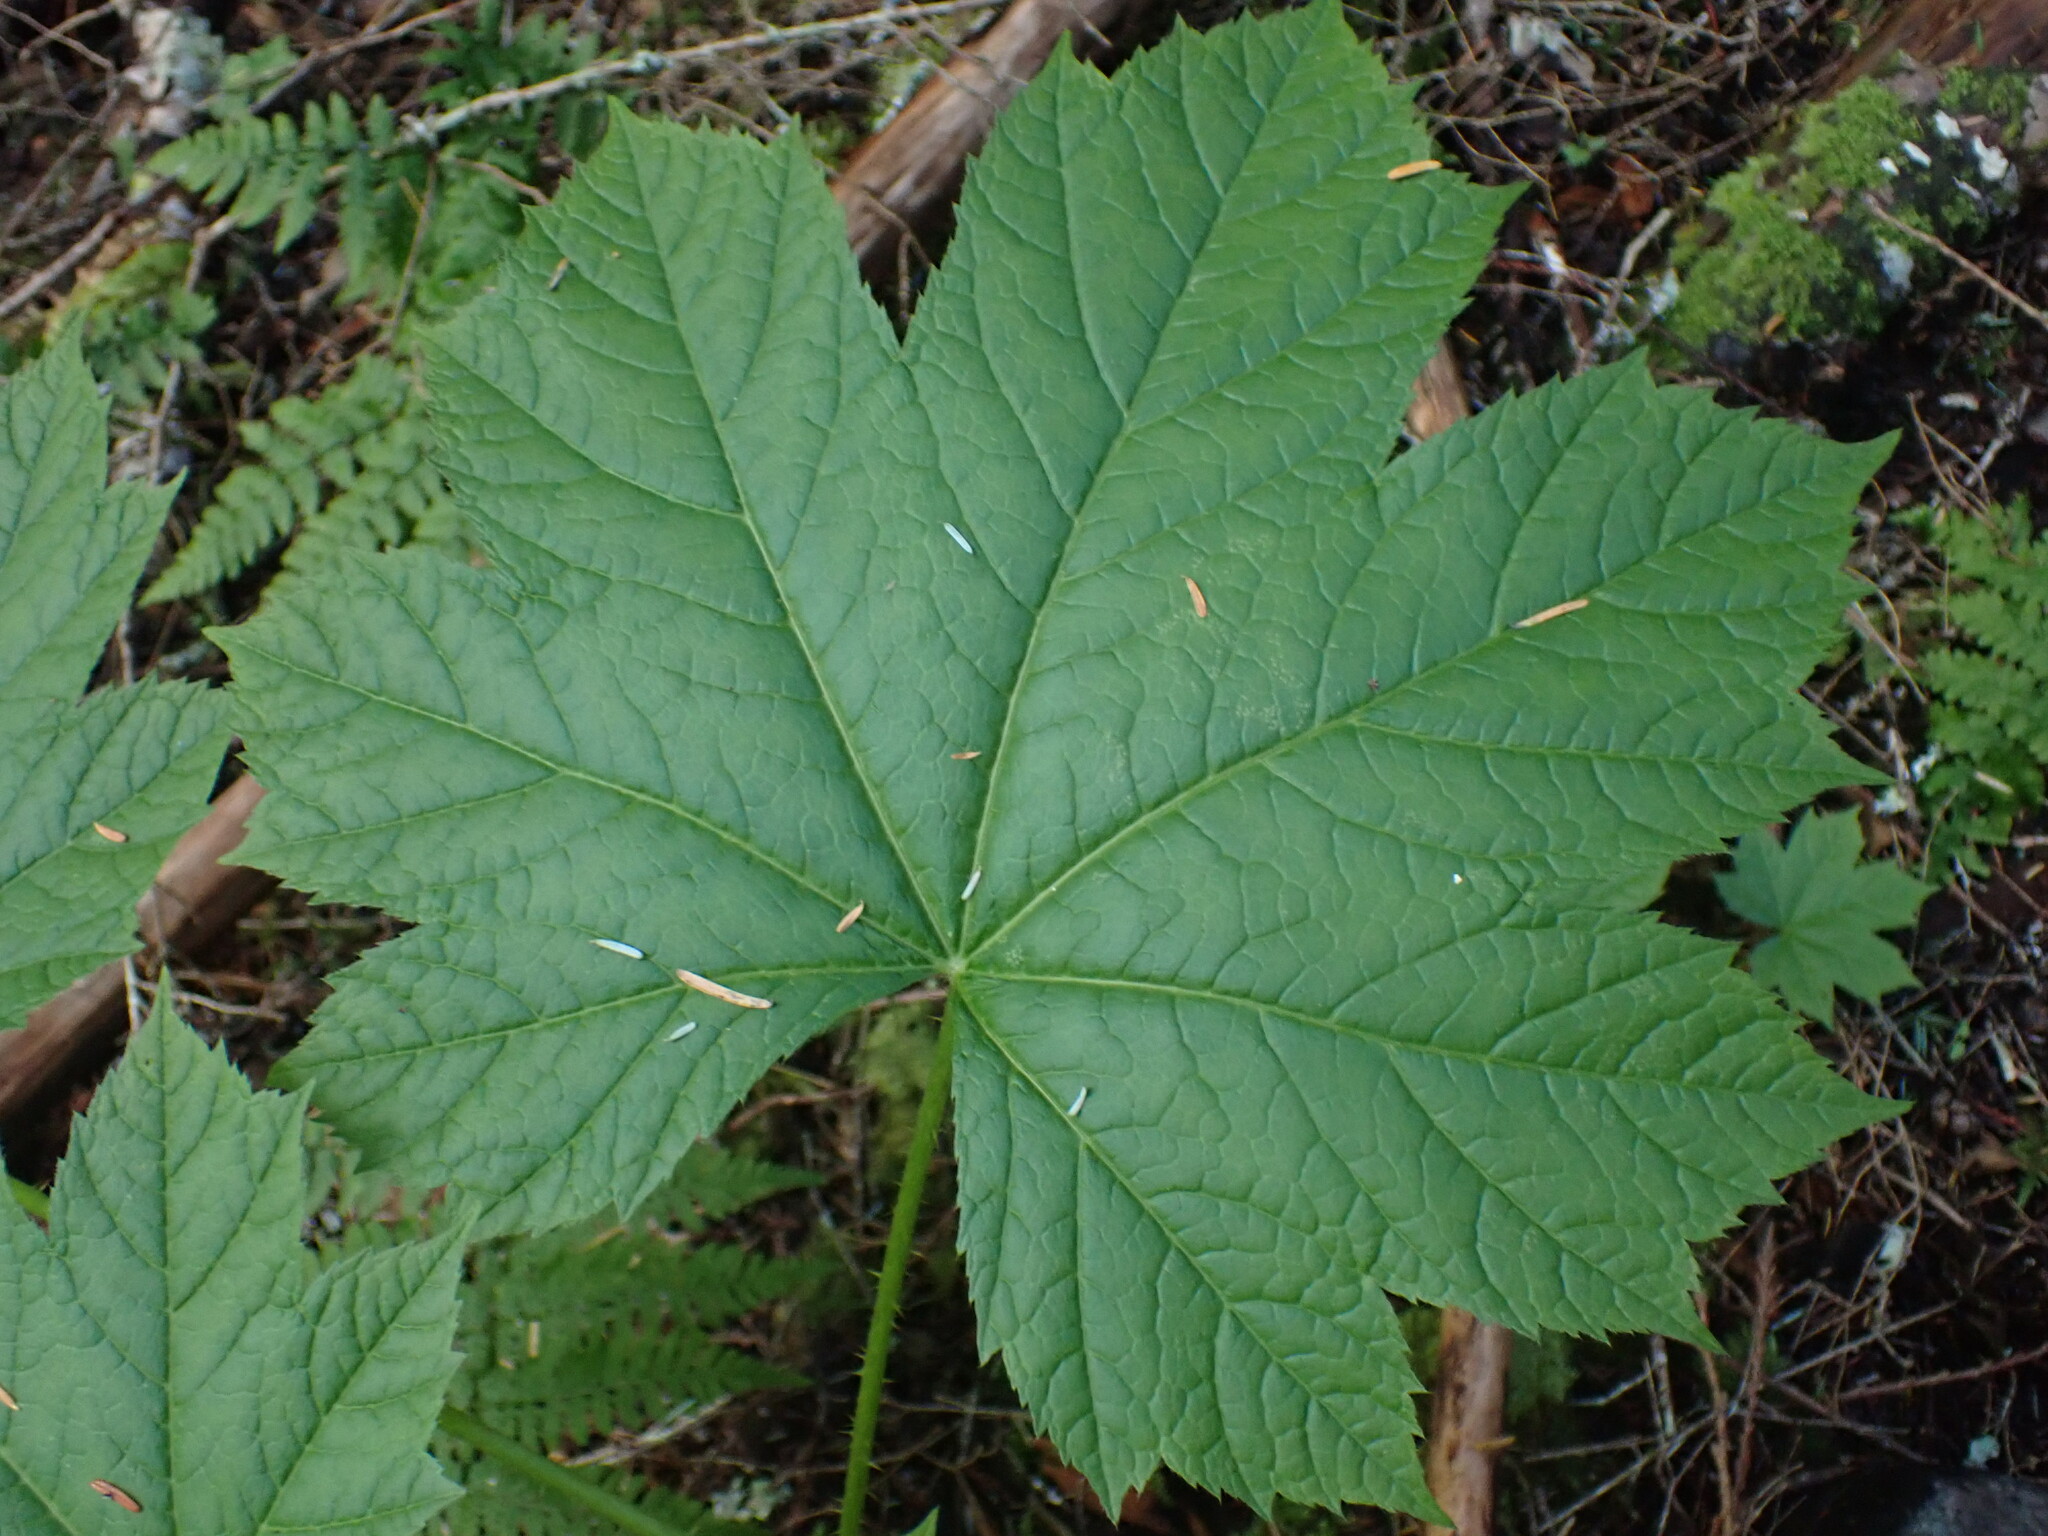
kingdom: Plantae
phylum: Tracheophyta
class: Magnoliopsida
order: Apiales
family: Araliaceae
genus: Oplopanax
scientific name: Oplopanax horridus
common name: Devil's walking-stick
